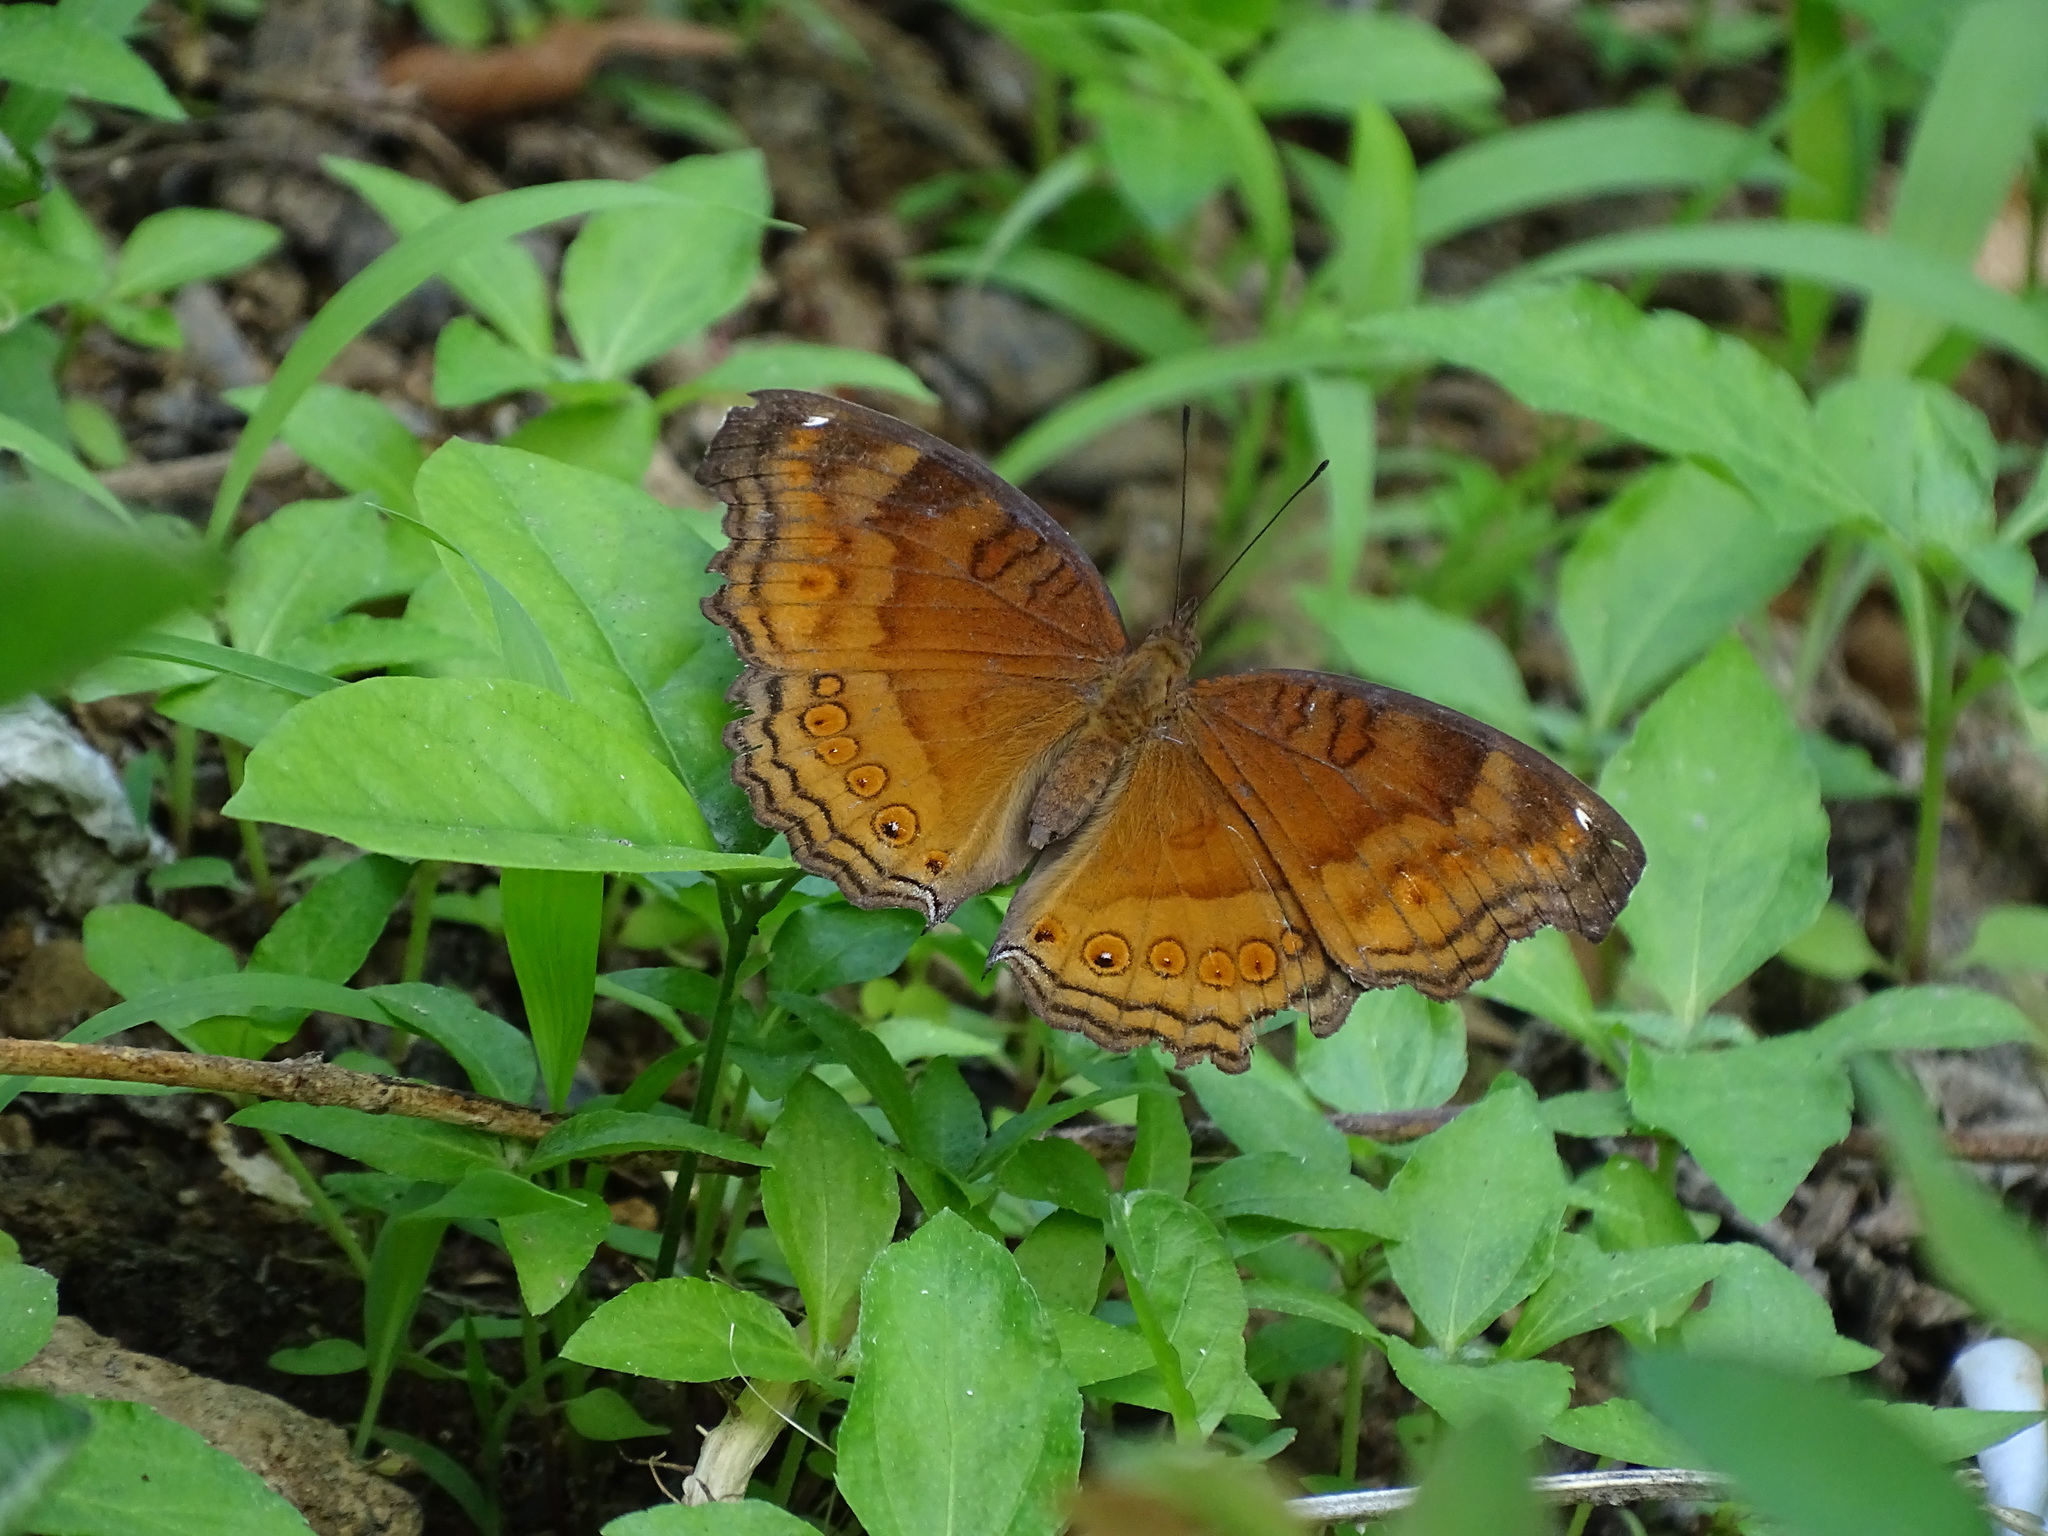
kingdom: Animalia
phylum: Arthropoda
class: Insecta
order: Lepidoptera
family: Nymphalidae
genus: Junonia
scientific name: Junonia hedonia
